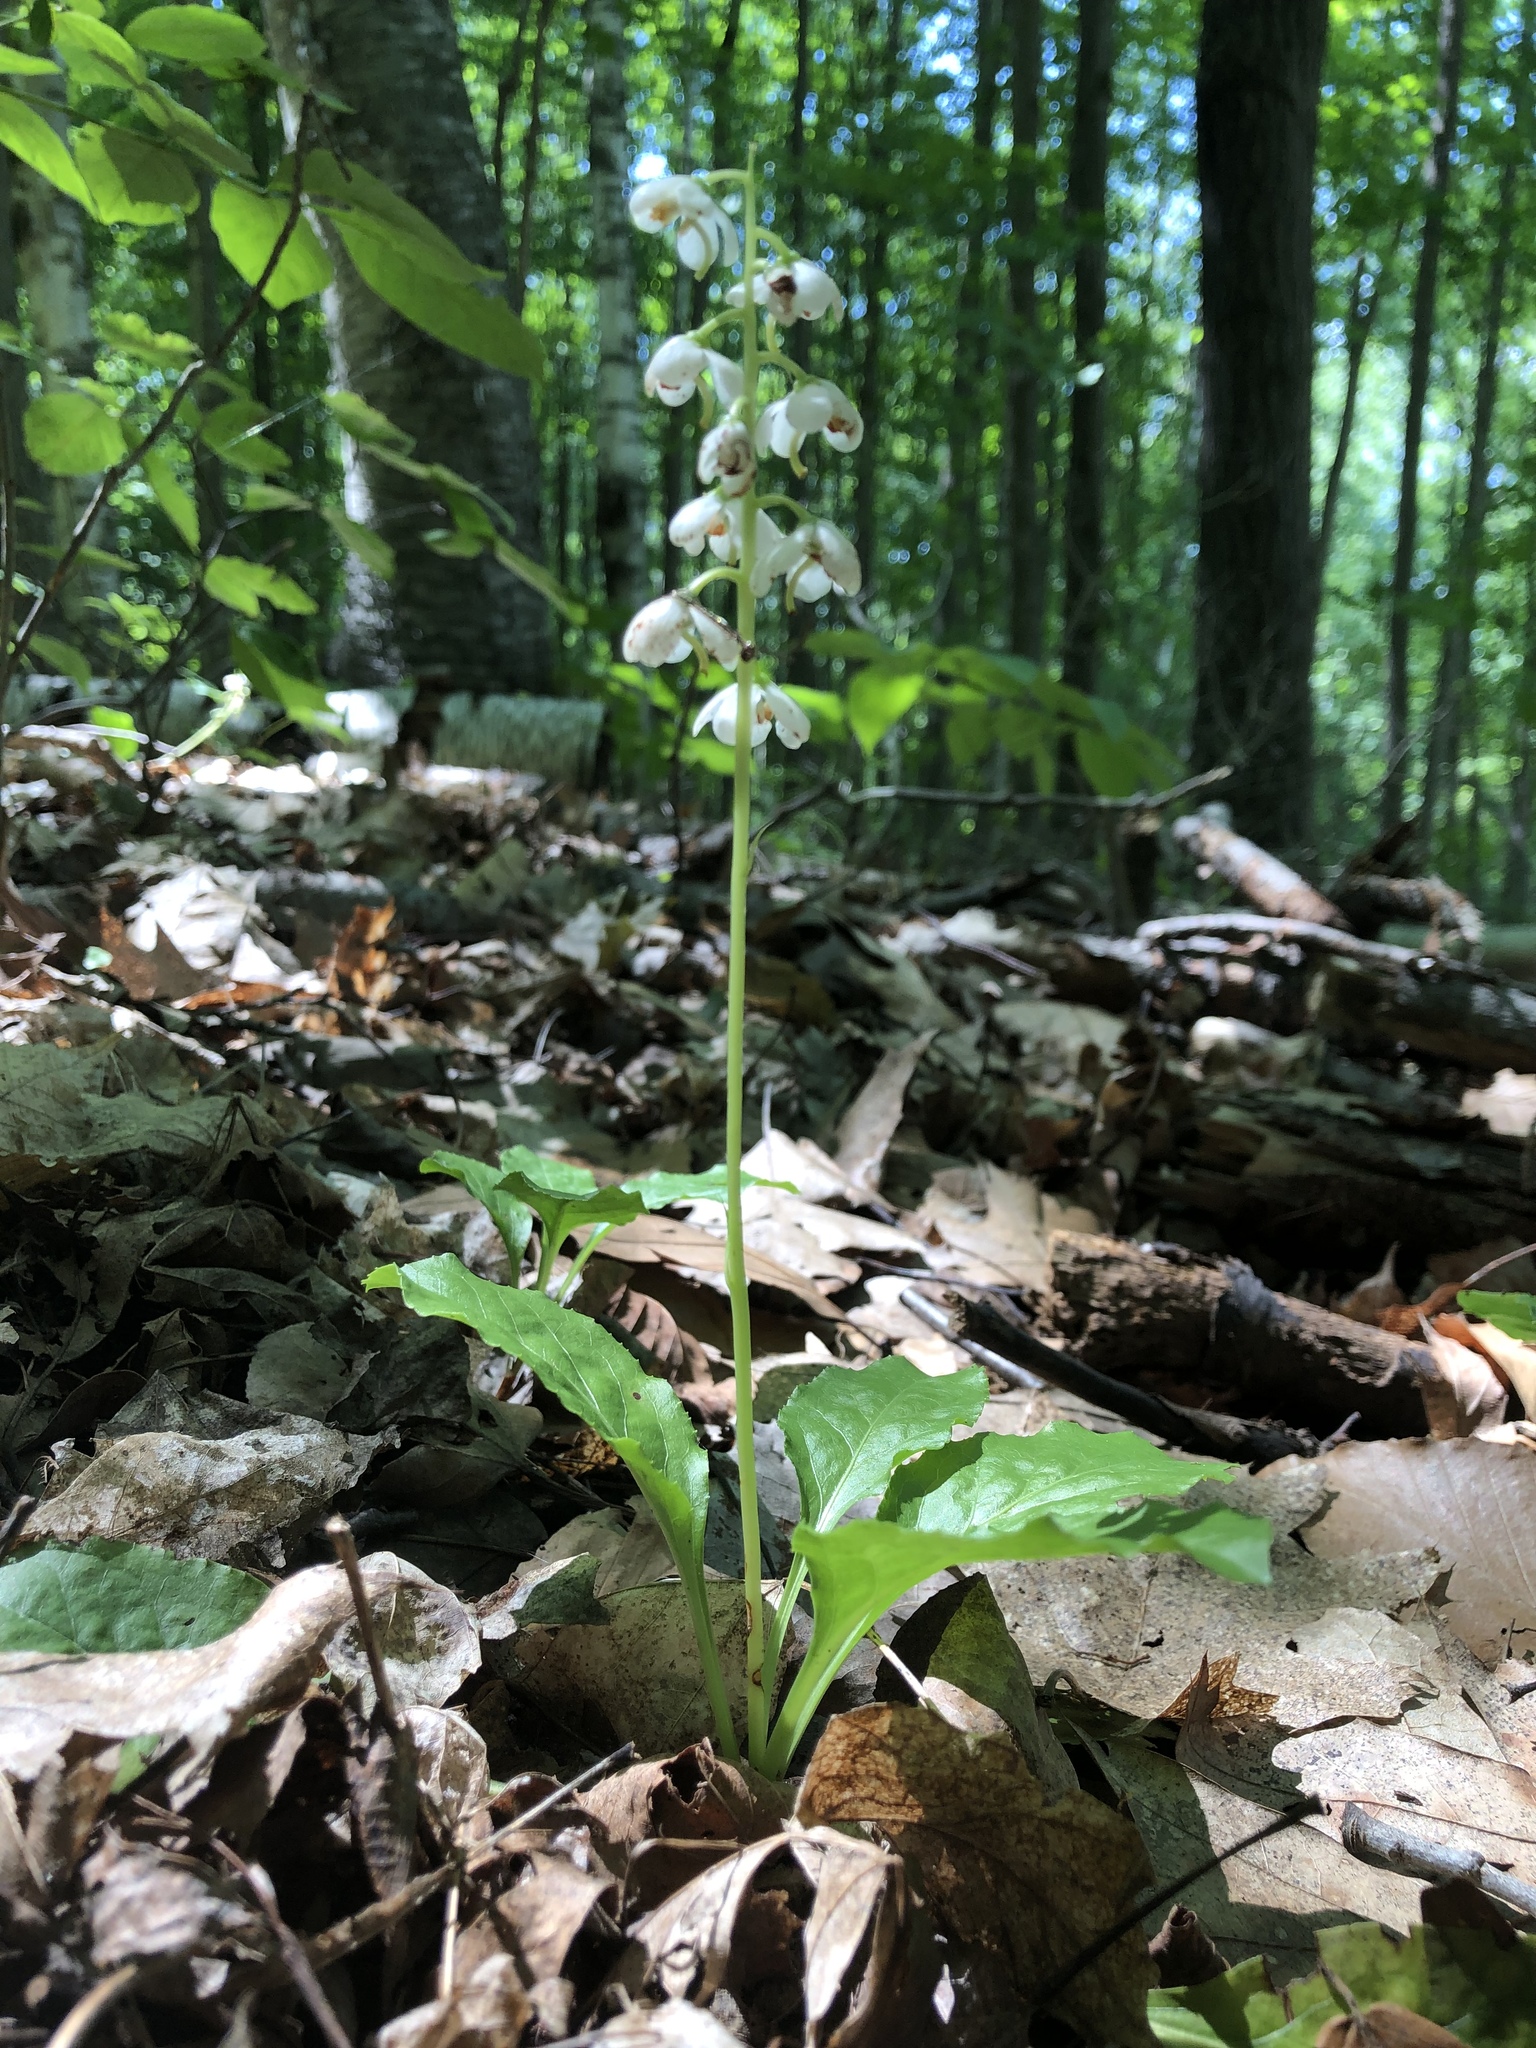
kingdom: Plantae
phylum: Tracheophyta
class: Magnoliopsida
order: Ericales
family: Ericaceae
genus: Pyrola
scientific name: Pyrola elliptica
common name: Shinleaf
